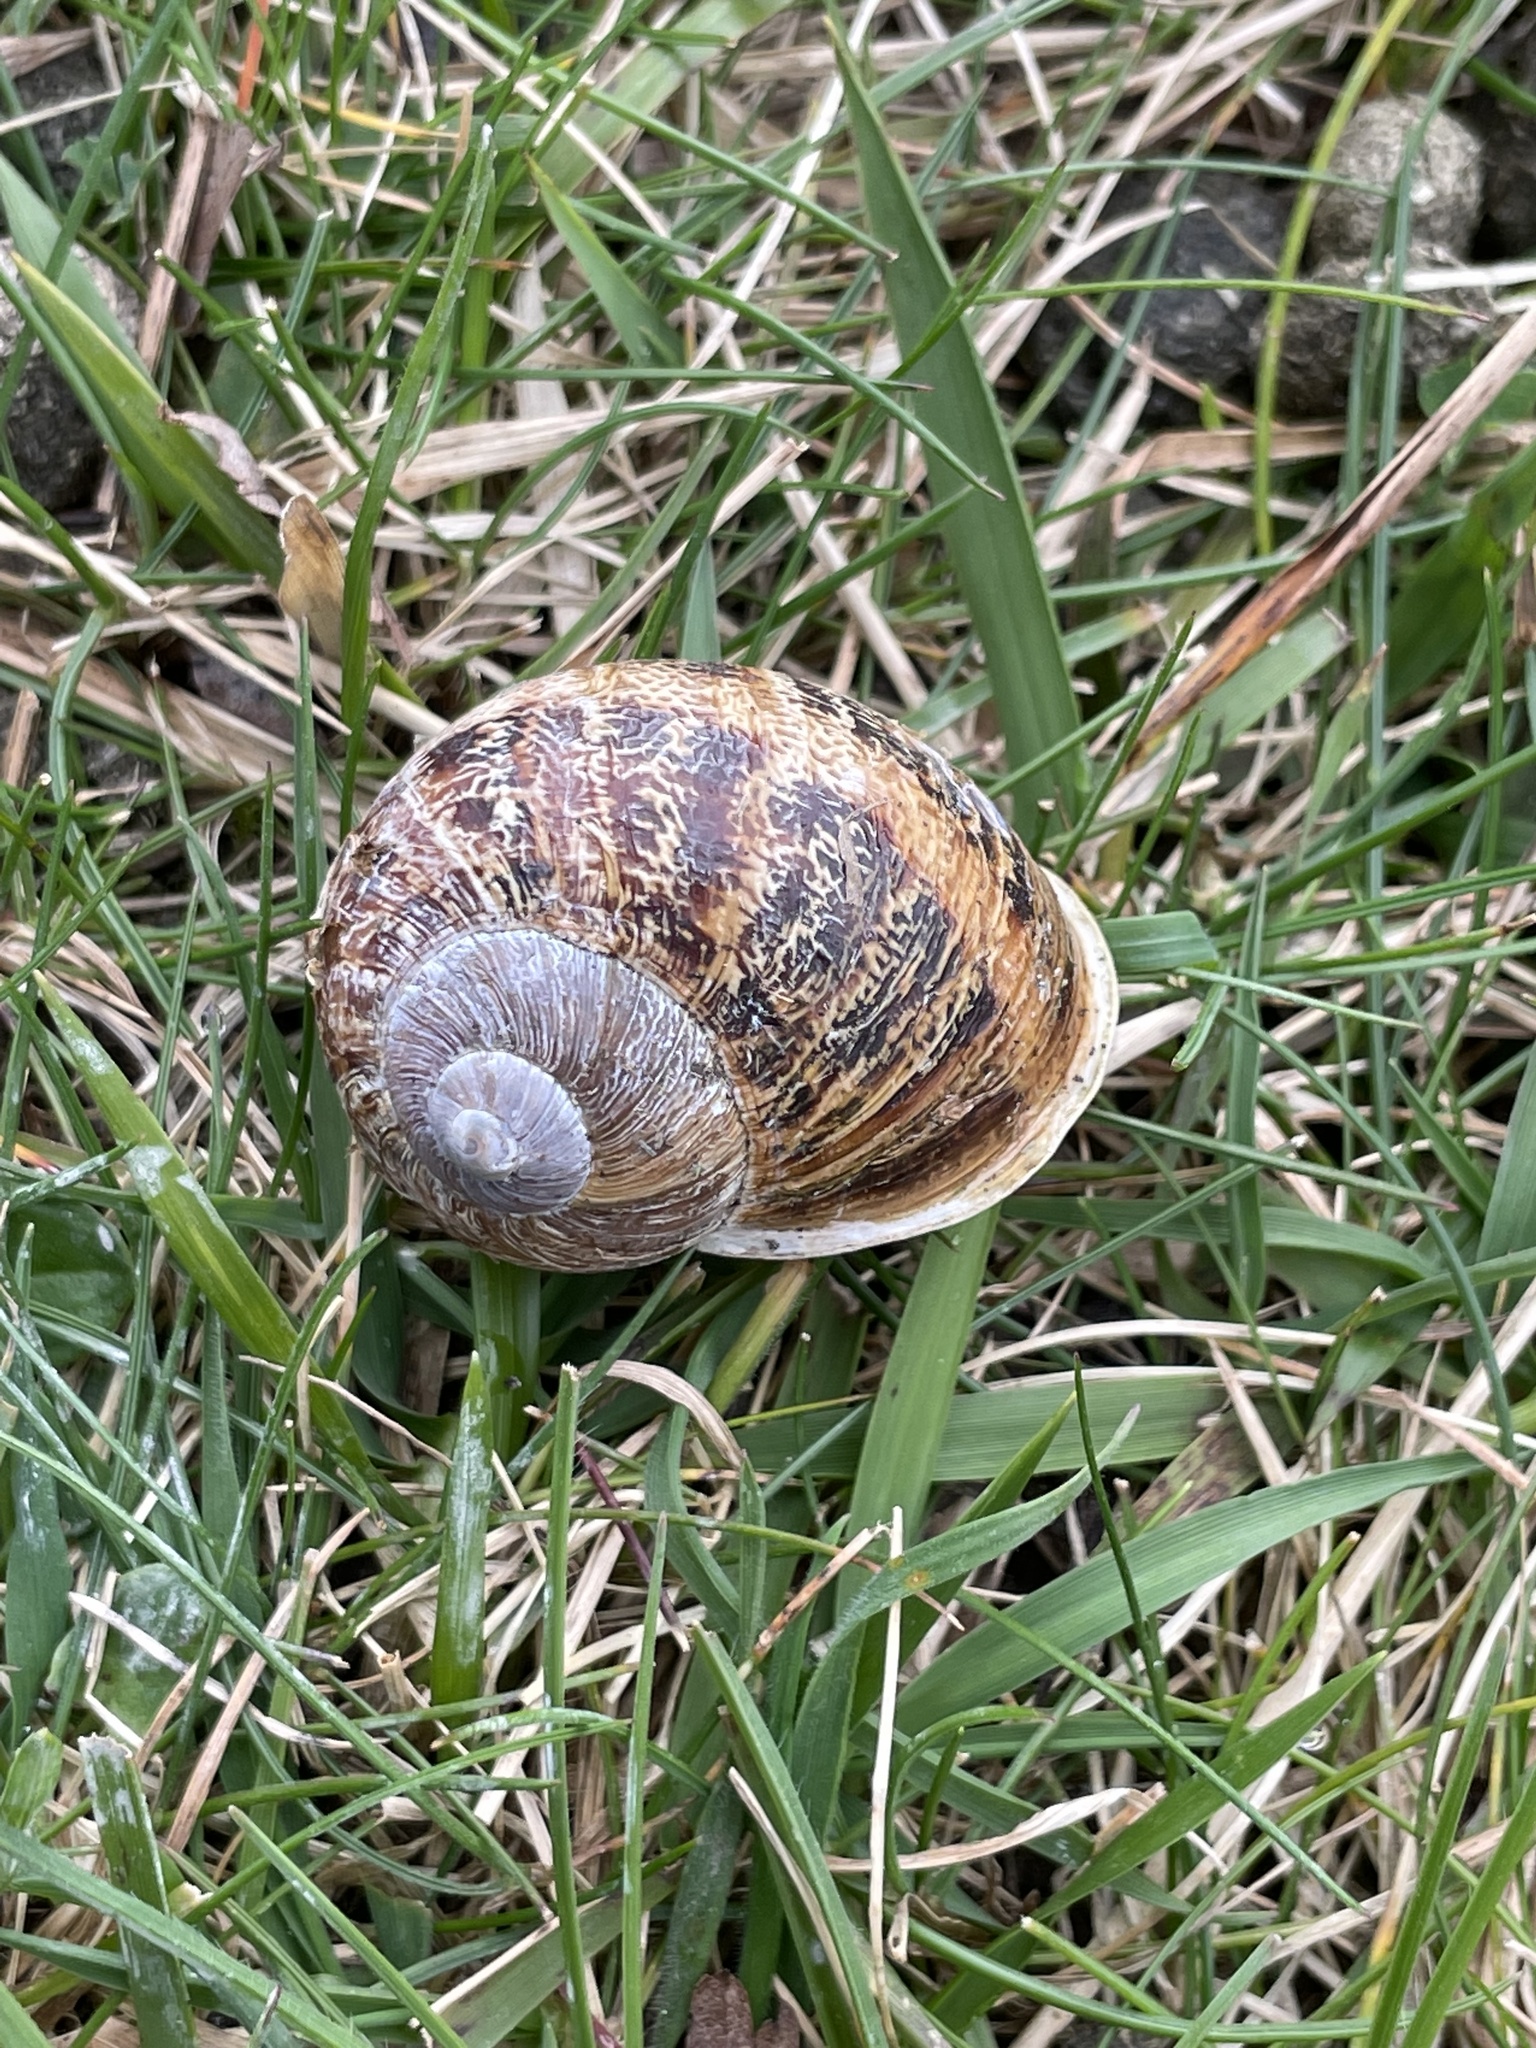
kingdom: Animalia
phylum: Mollusca
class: Gastropoda
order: Stylommatophora
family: Helicidae
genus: Cornu
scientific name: Cornu aspersum
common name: Brown garden snail
